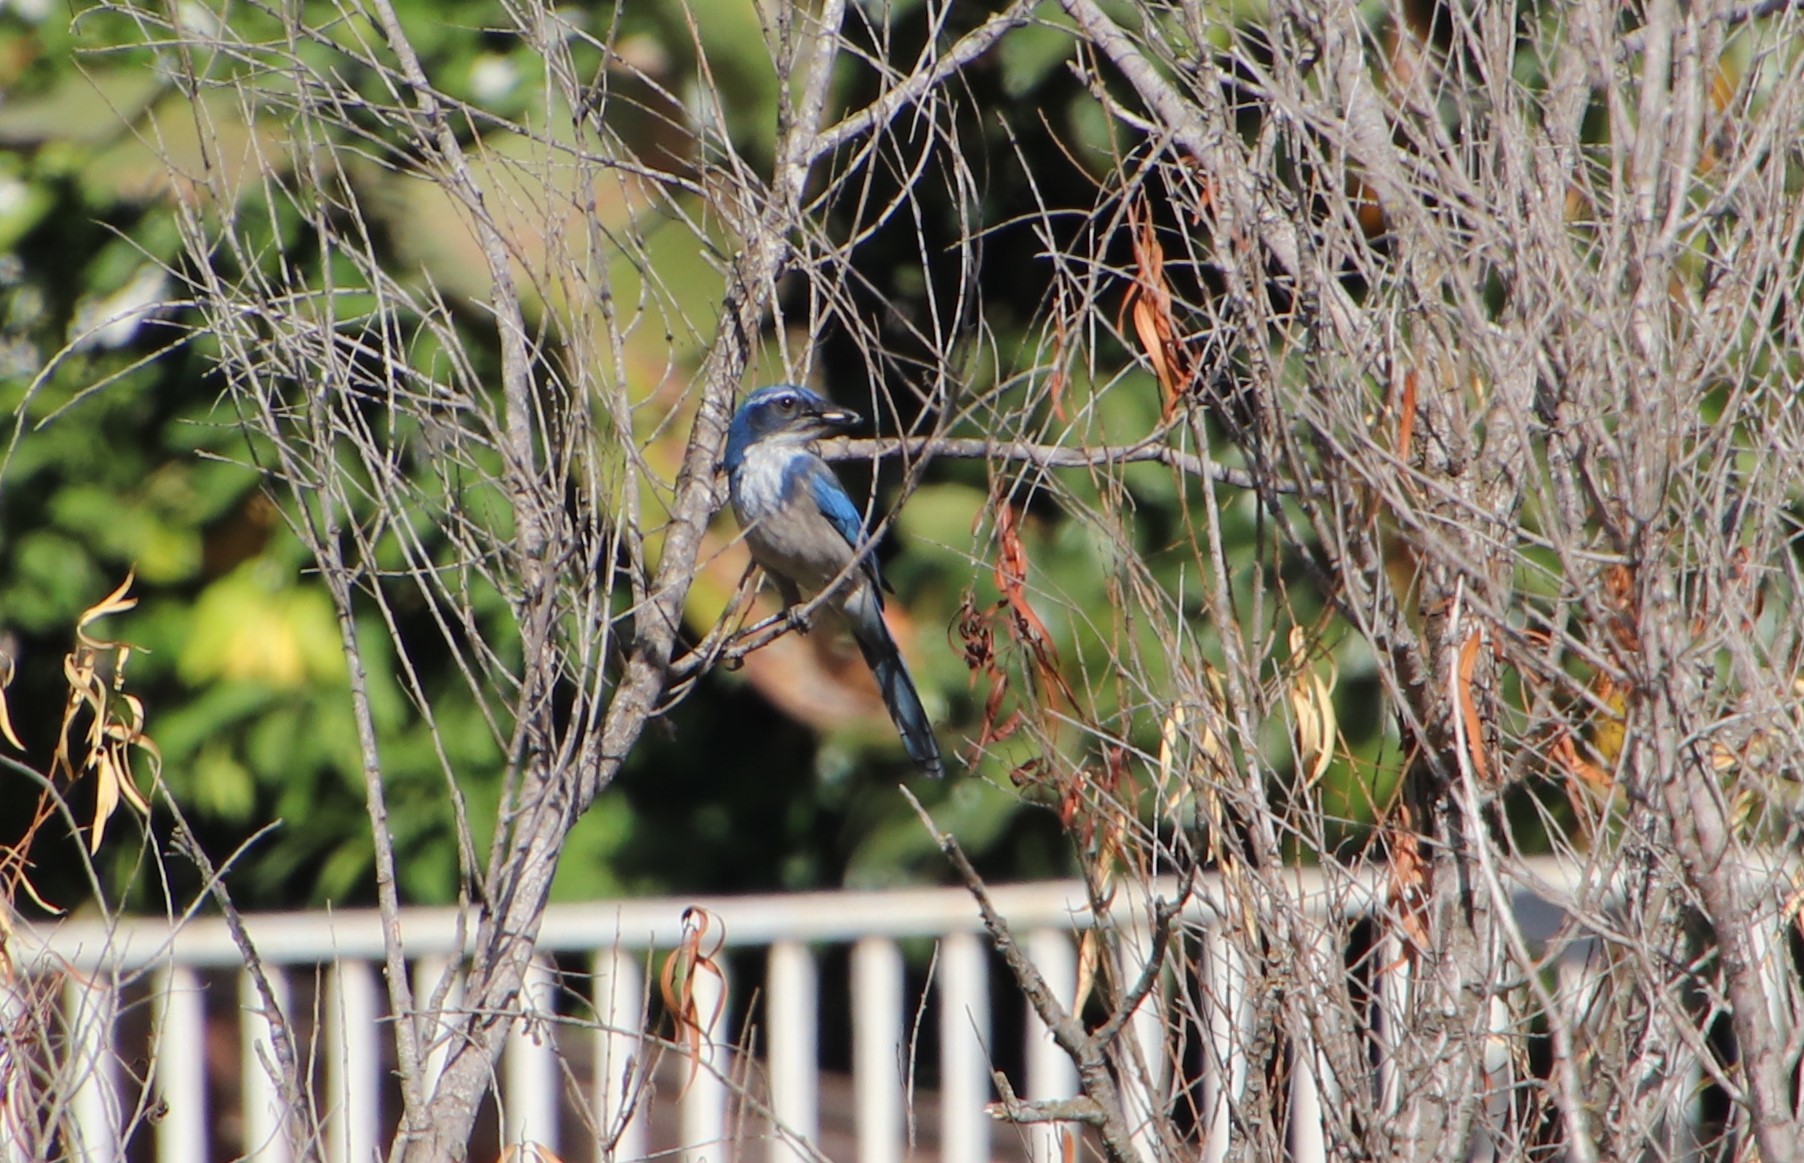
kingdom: Animalia
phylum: Chordata
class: Aves
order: Passeriformes
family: Corvidae
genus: Aphelocoma
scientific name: Aphelocoma californica
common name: California scrub-jay
